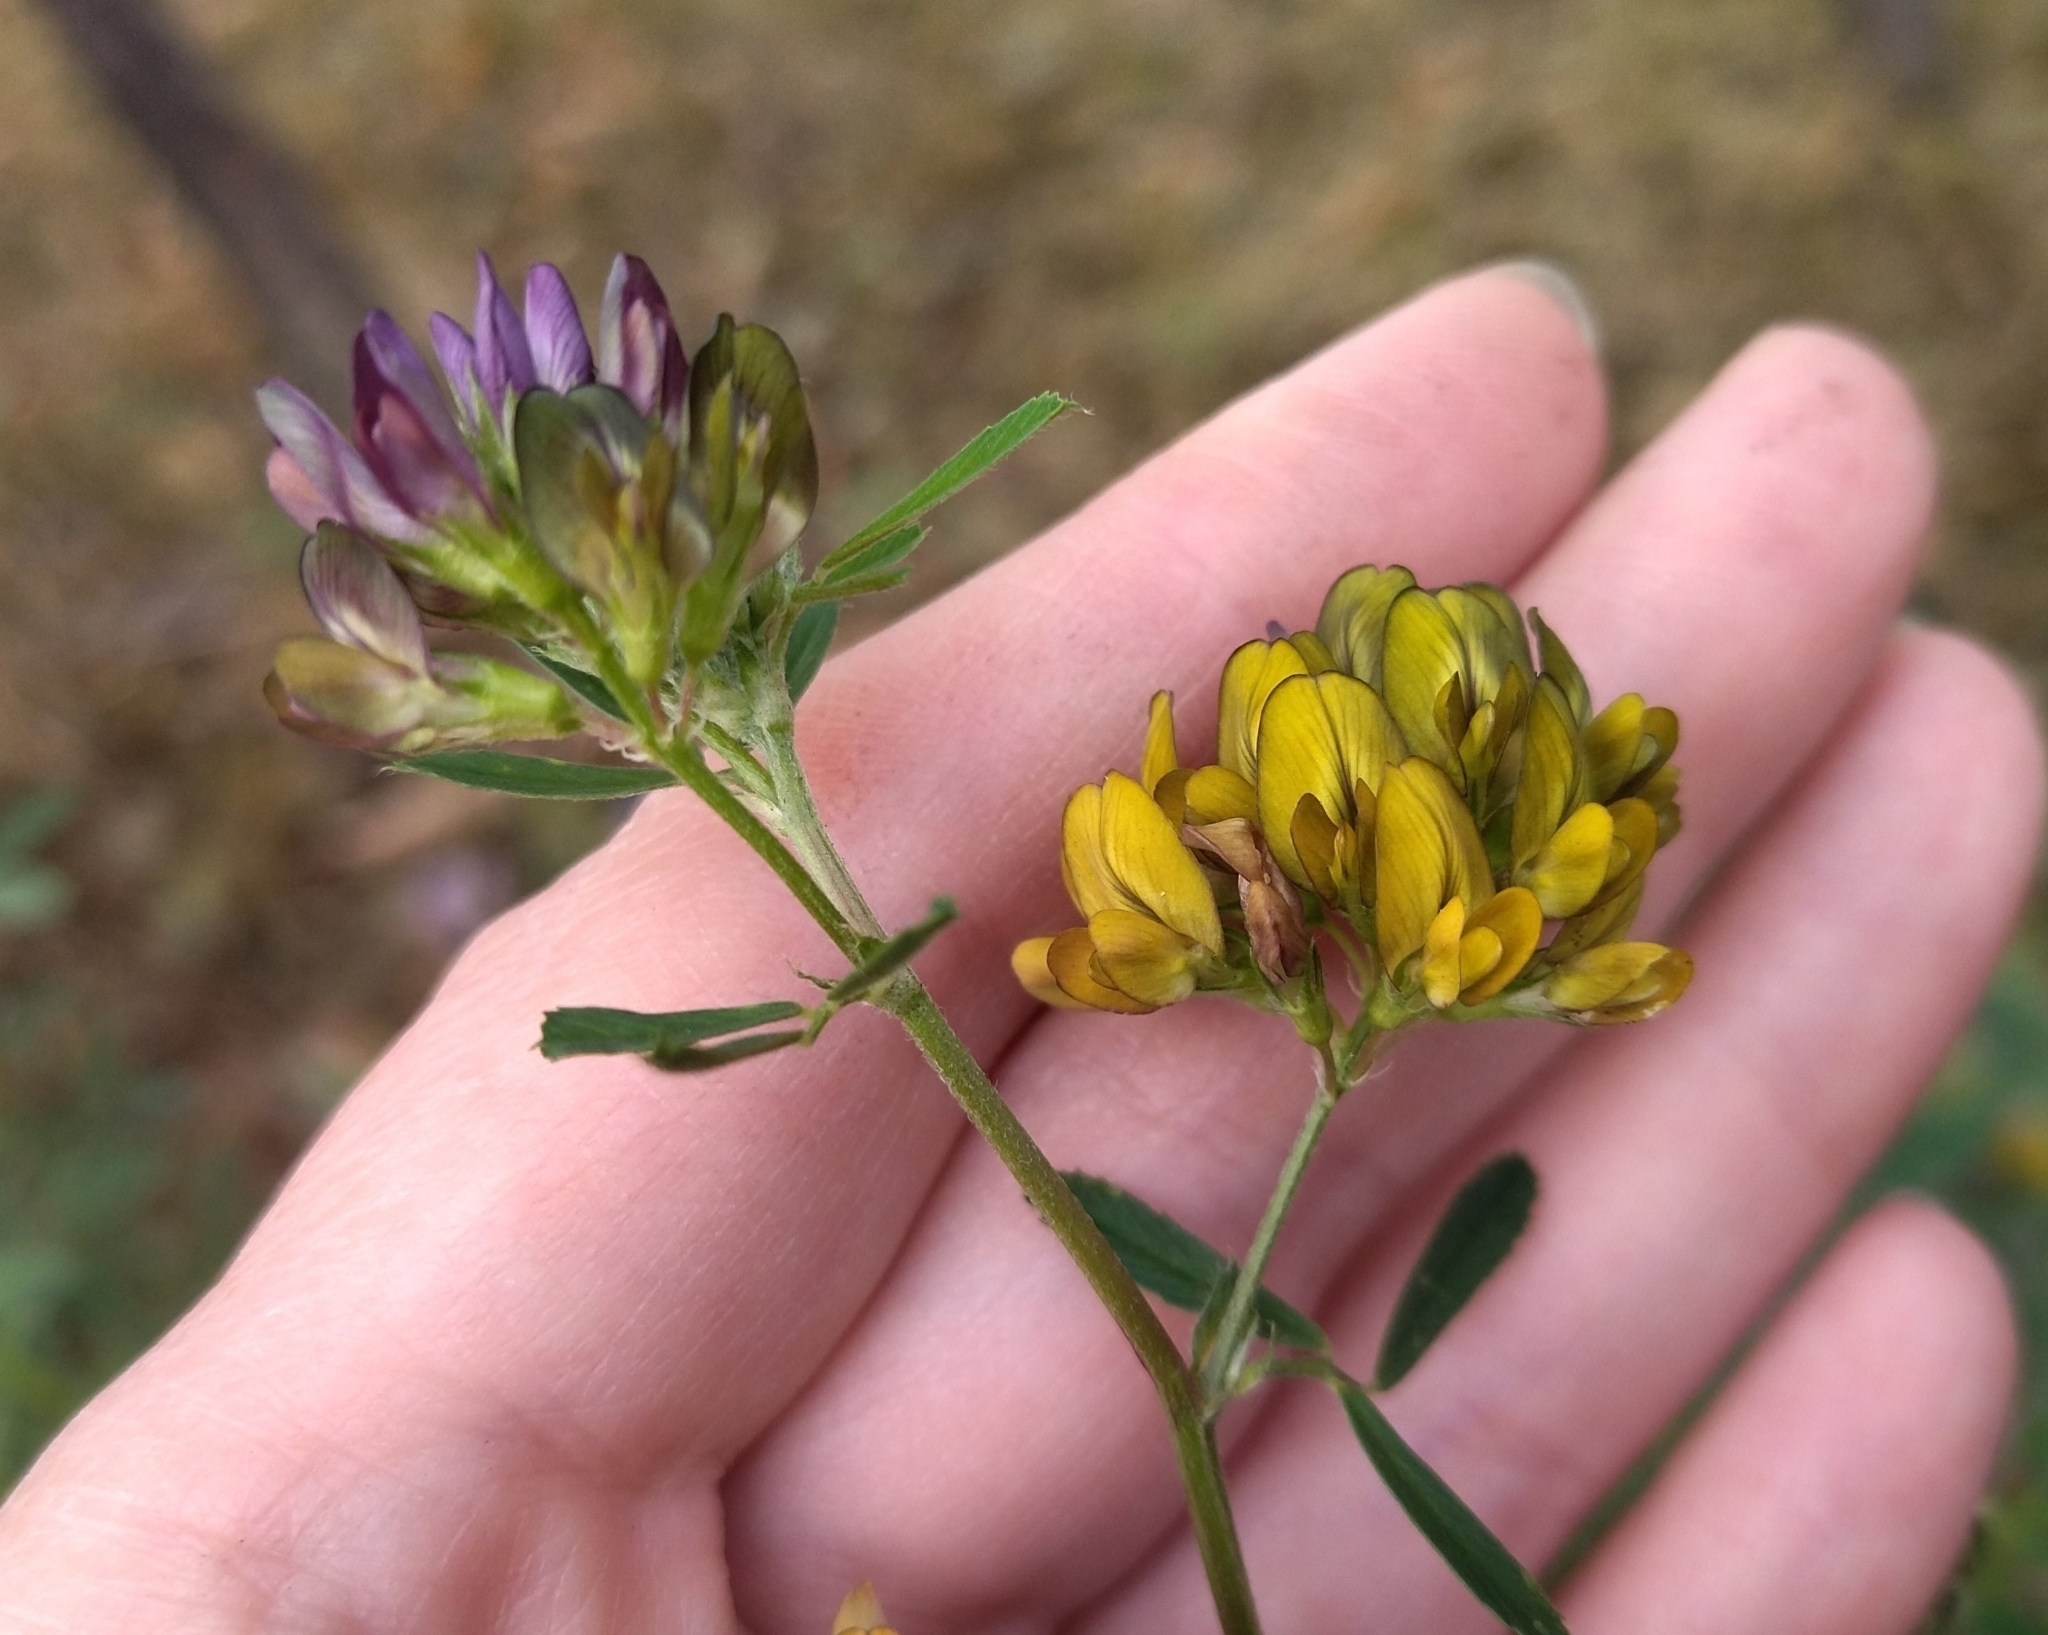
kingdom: Plantae
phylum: Tracheophyta
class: Magnoliopsida
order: Fabales
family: Fabaceae
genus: Medicago
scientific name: Medicago varia
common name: Sand lucerne
